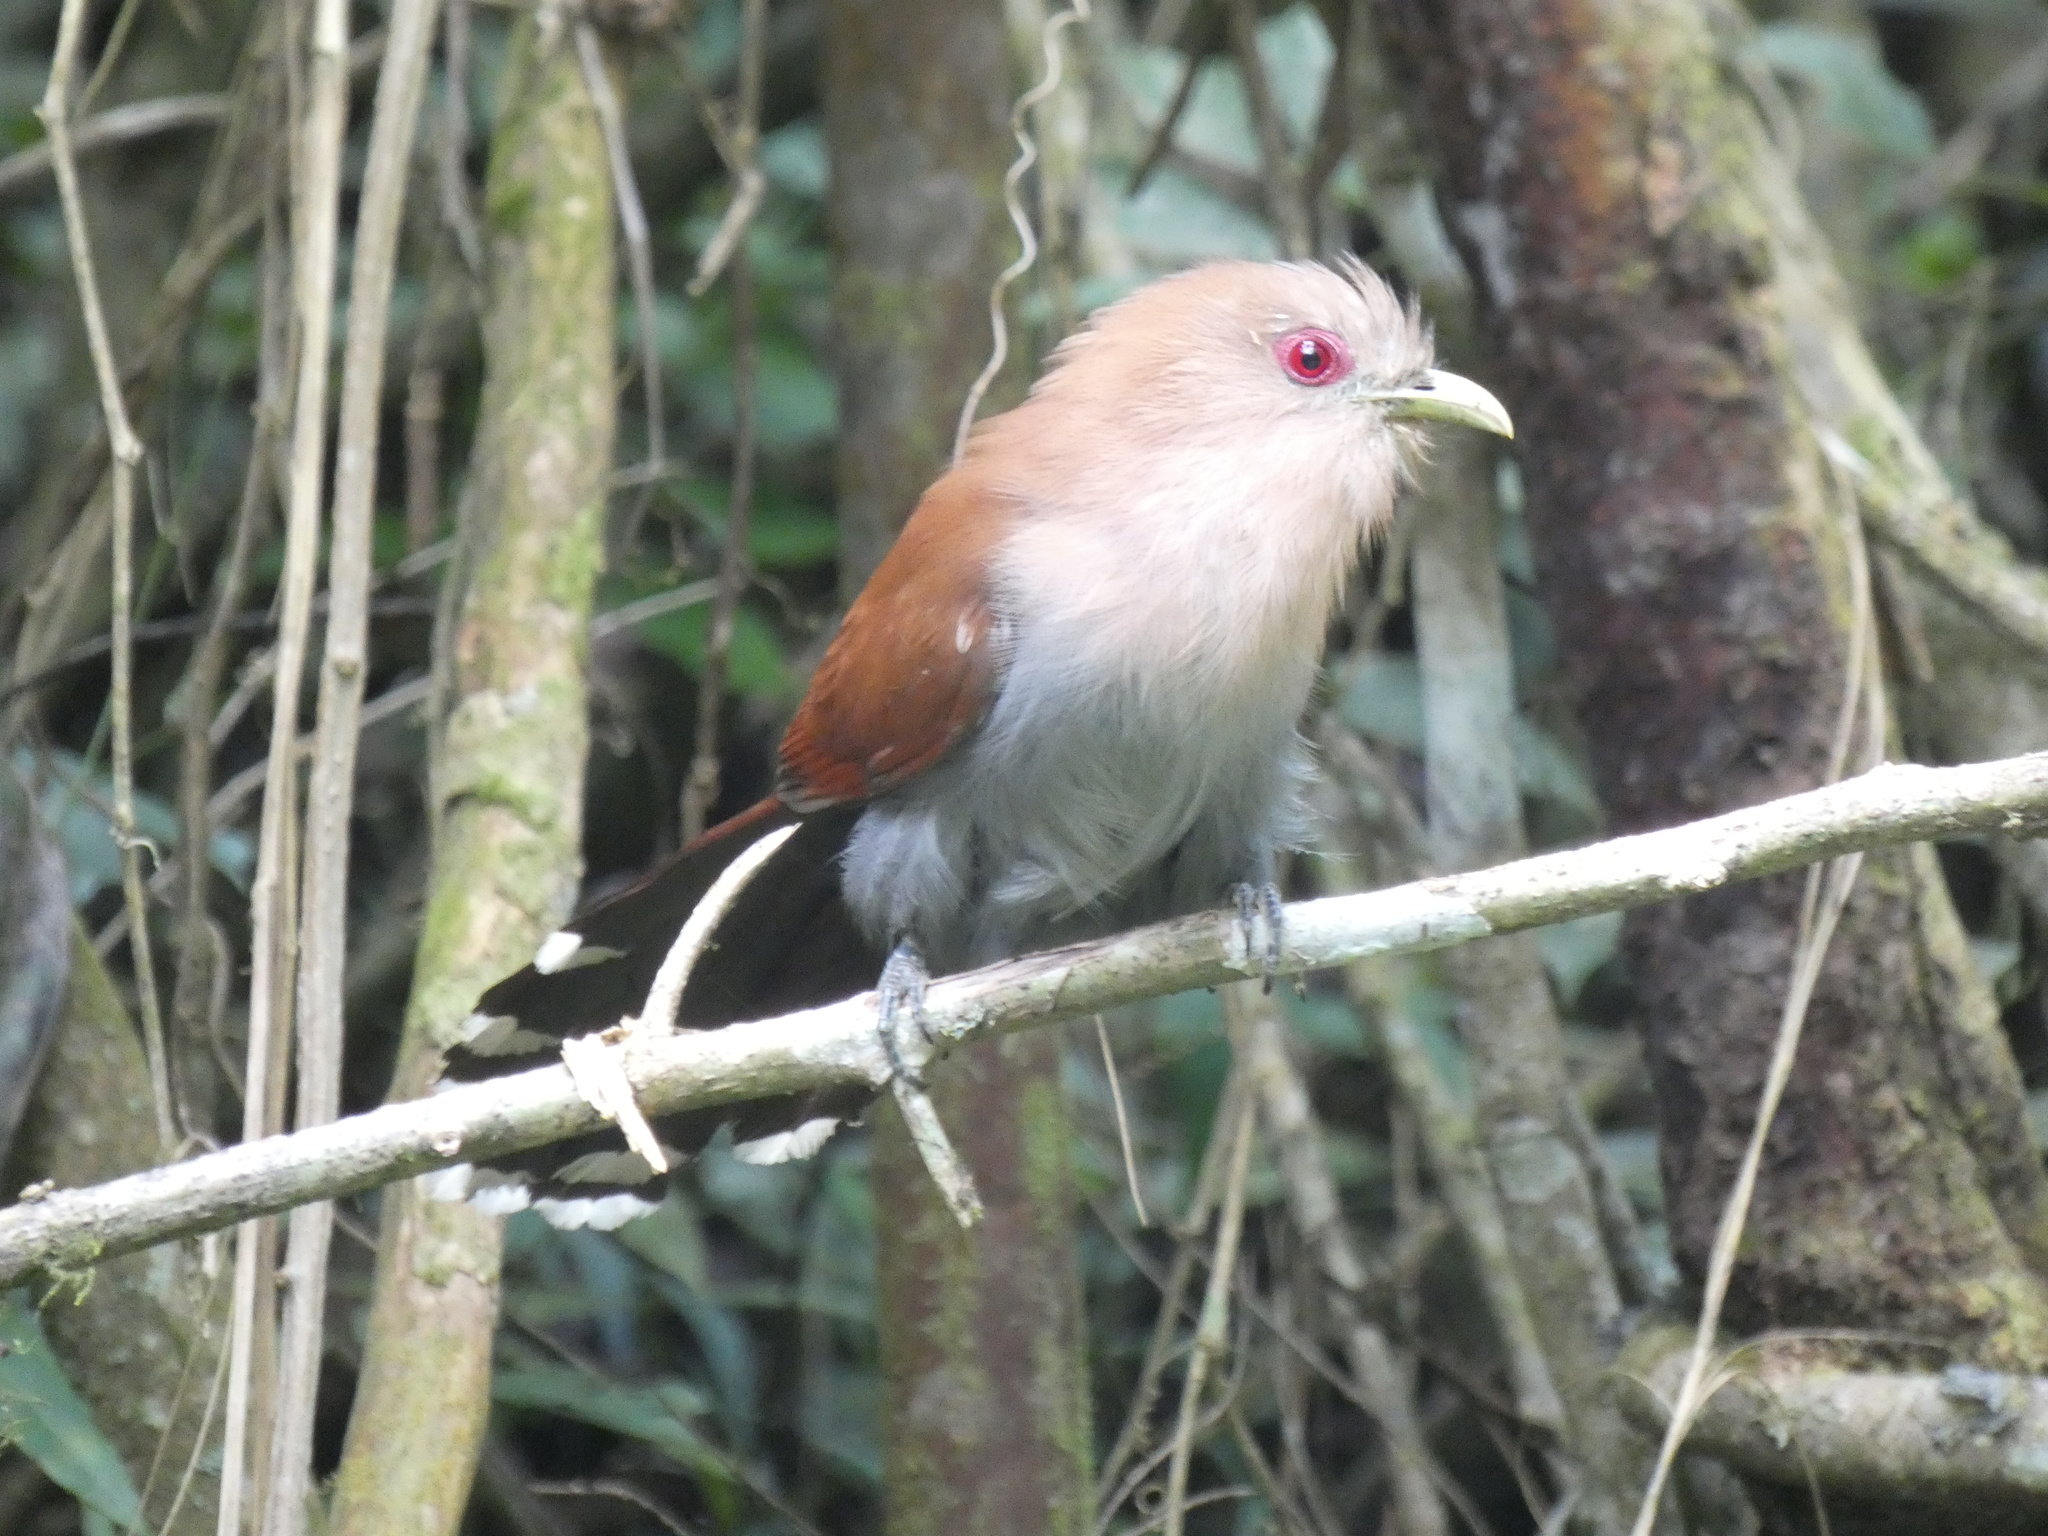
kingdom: Animalia
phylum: Chordata
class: Aves
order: Cuculiformes
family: Cuculidae
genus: Piaya
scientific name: Piaya cayana
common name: Squirrel cuckoo
